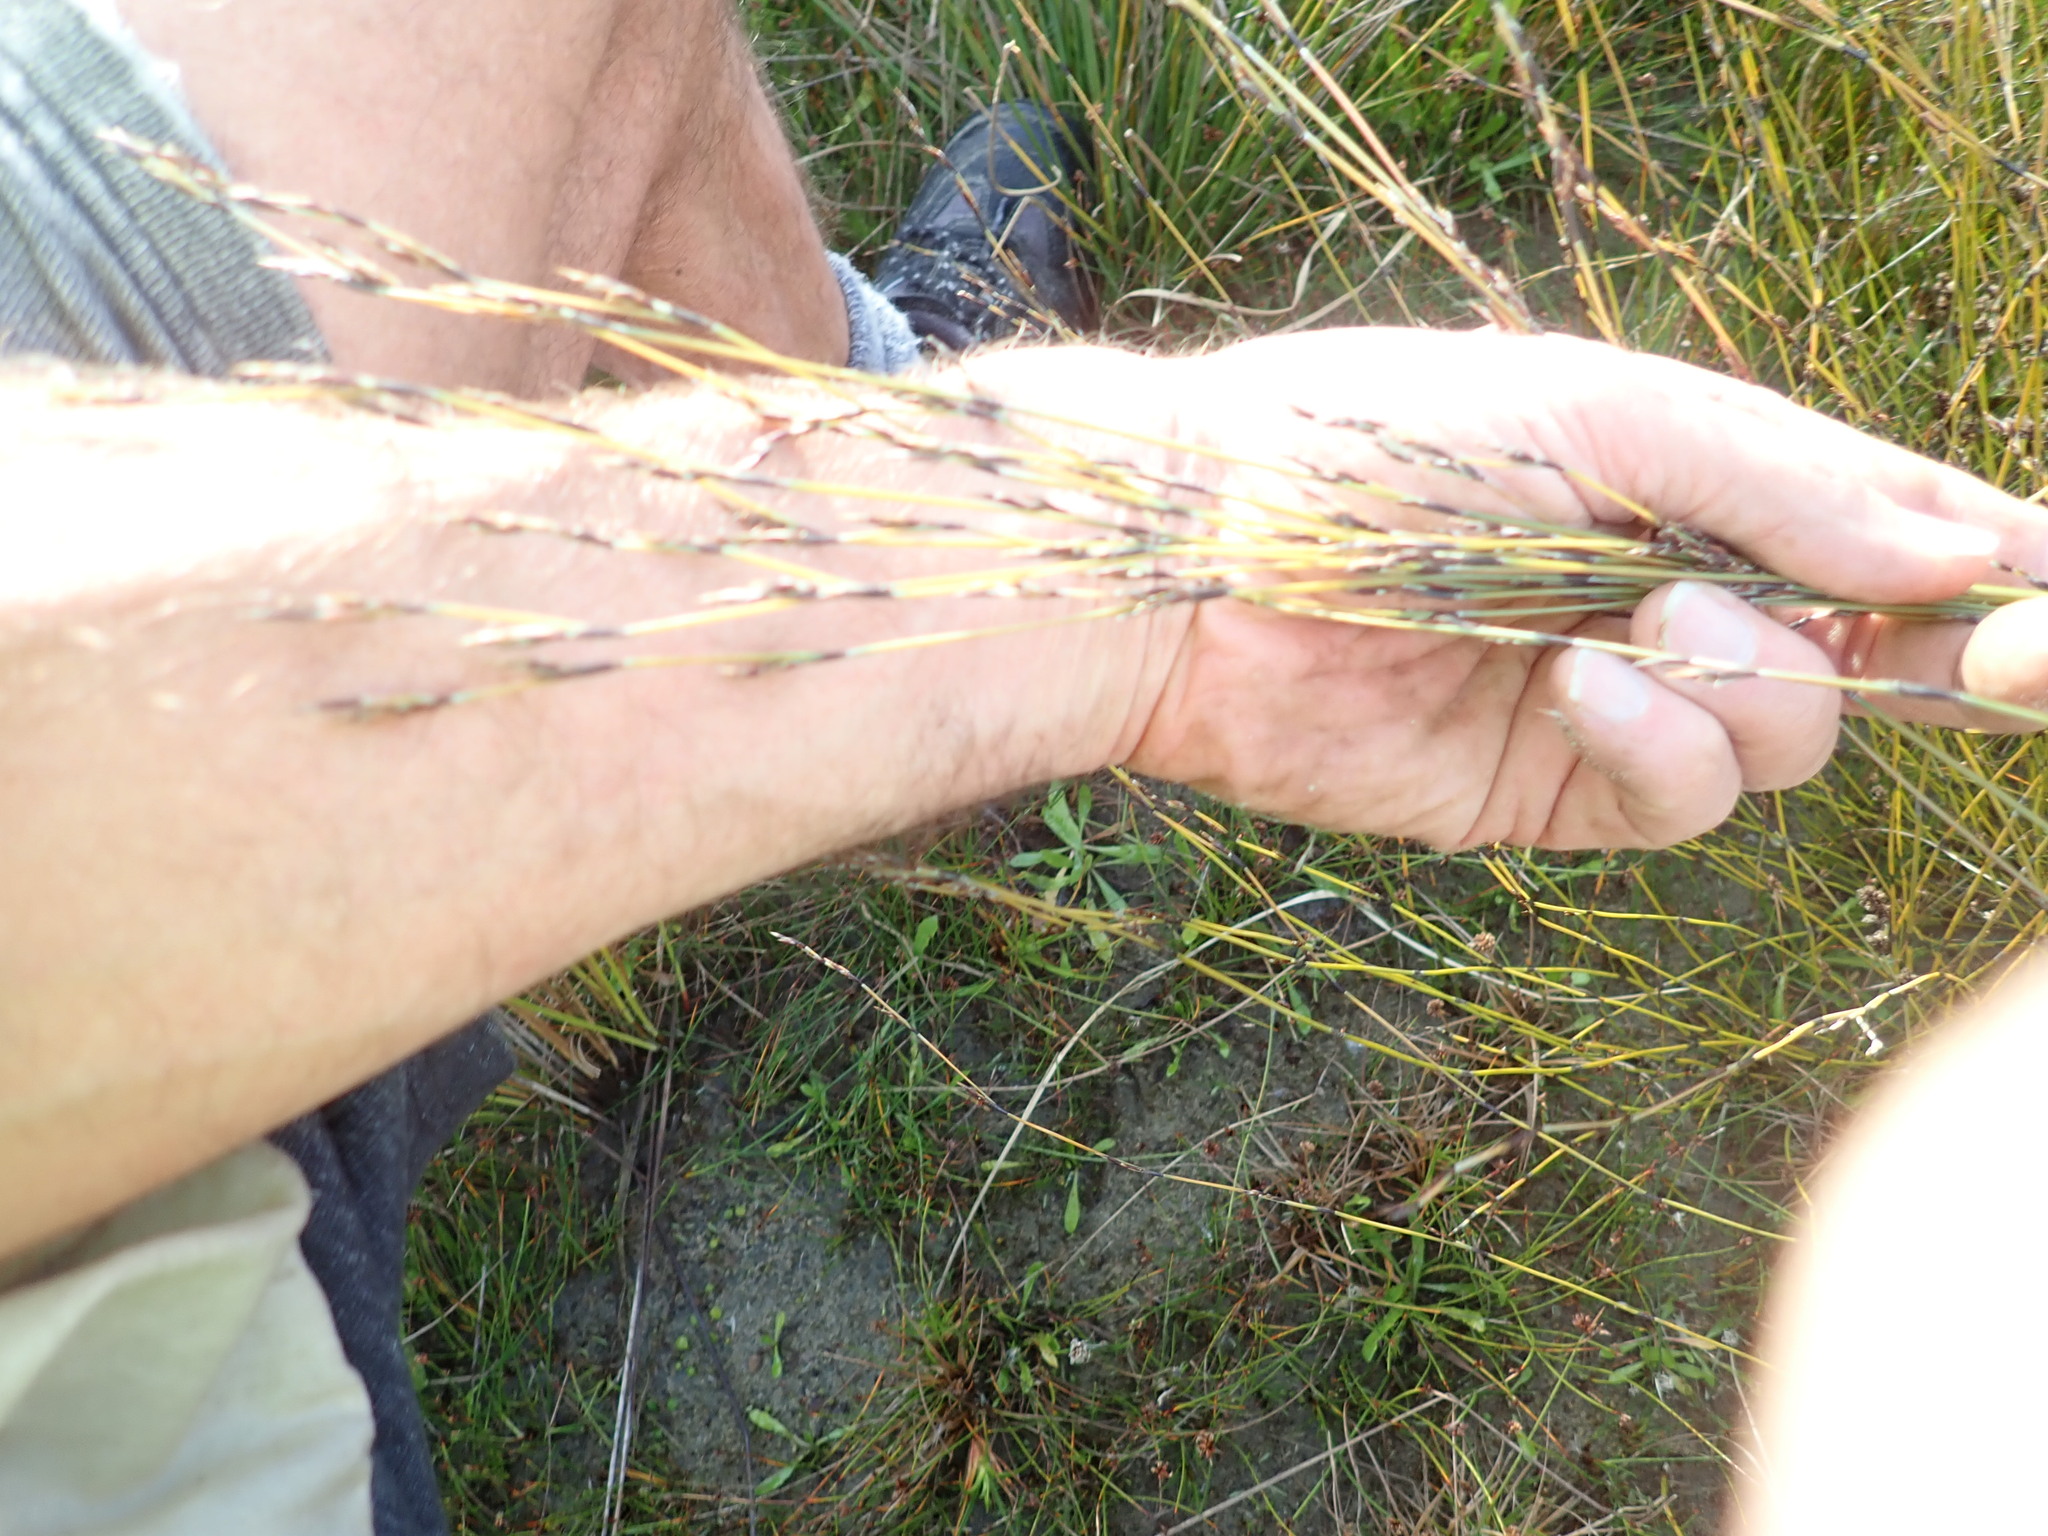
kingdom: Plantae
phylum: Tracheophyta
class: Liliopsida
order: Poales
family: Restionaceae
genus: Apodasmia
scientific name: Apodasmia similis
